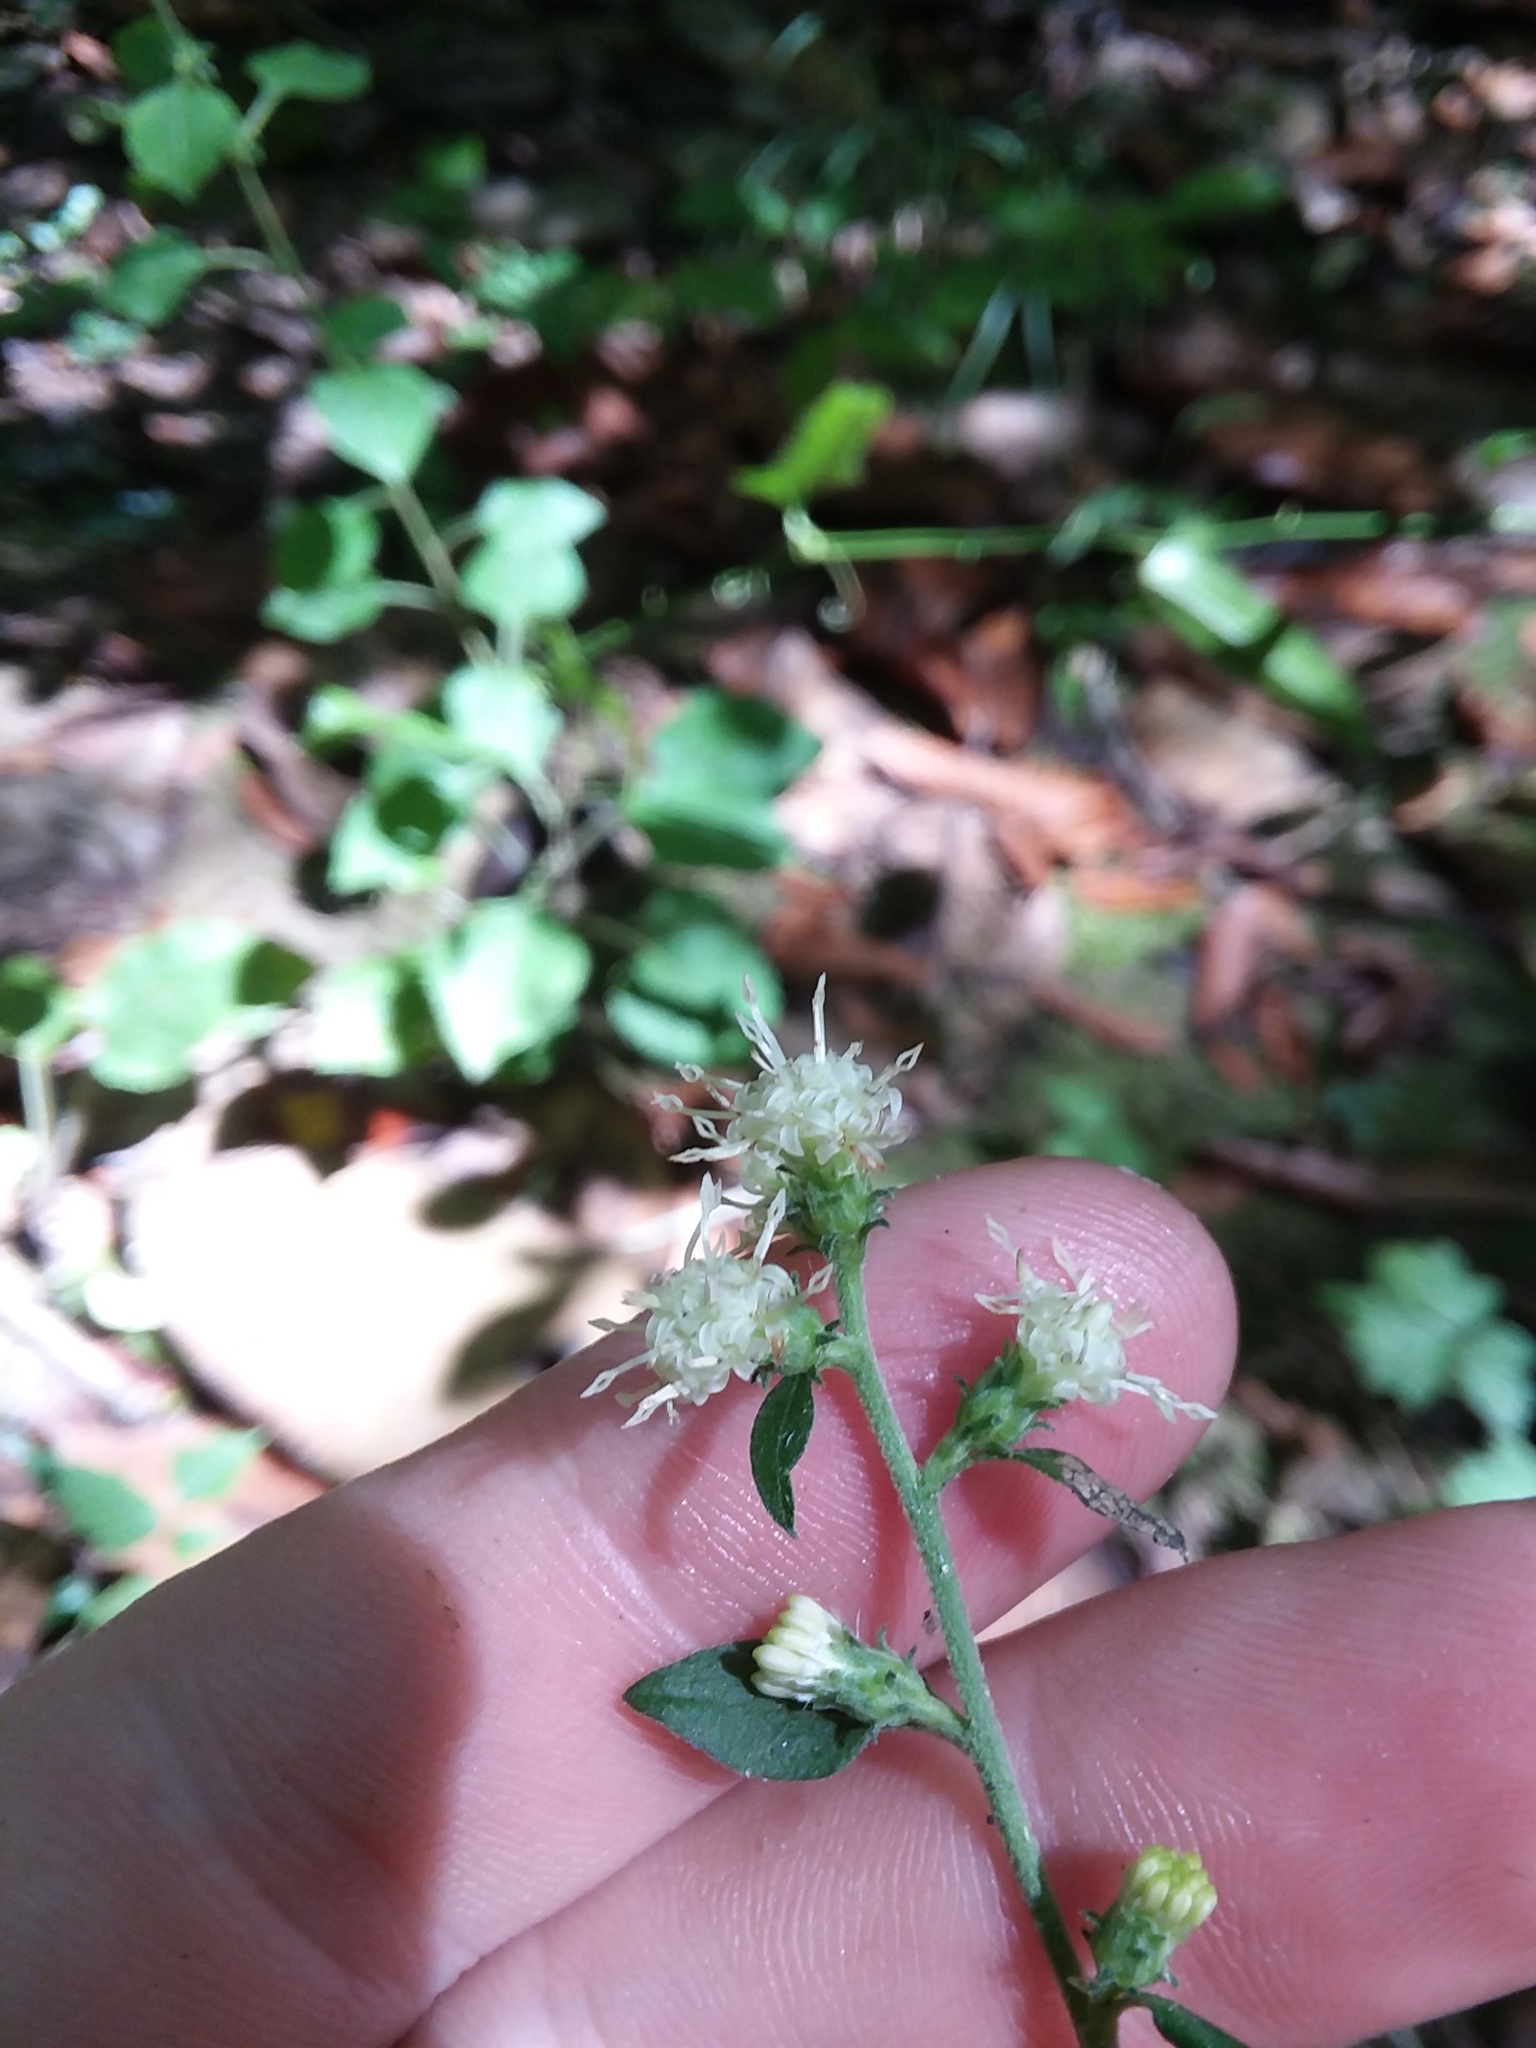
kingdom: Plantae
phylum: Tracheophyta
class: Magnoliopsida
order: Asterales
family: Asteraceae
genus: Solidago
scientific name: Solidago discoidea
